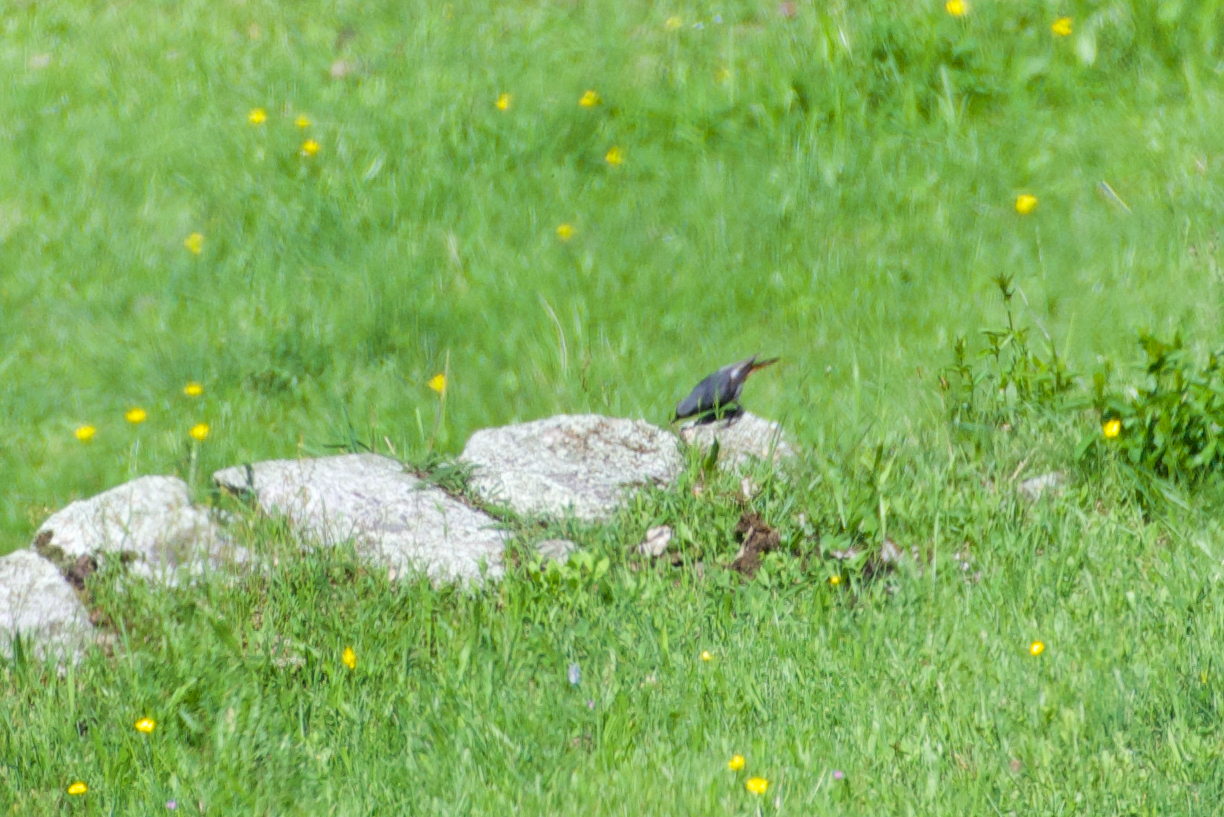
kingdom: Animalia
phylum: Chordata
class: Aves
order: Passeriformes
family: Muscicapidae
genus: Phoenicurus
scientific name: Phoenicurus ochruros
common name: Black redstart
